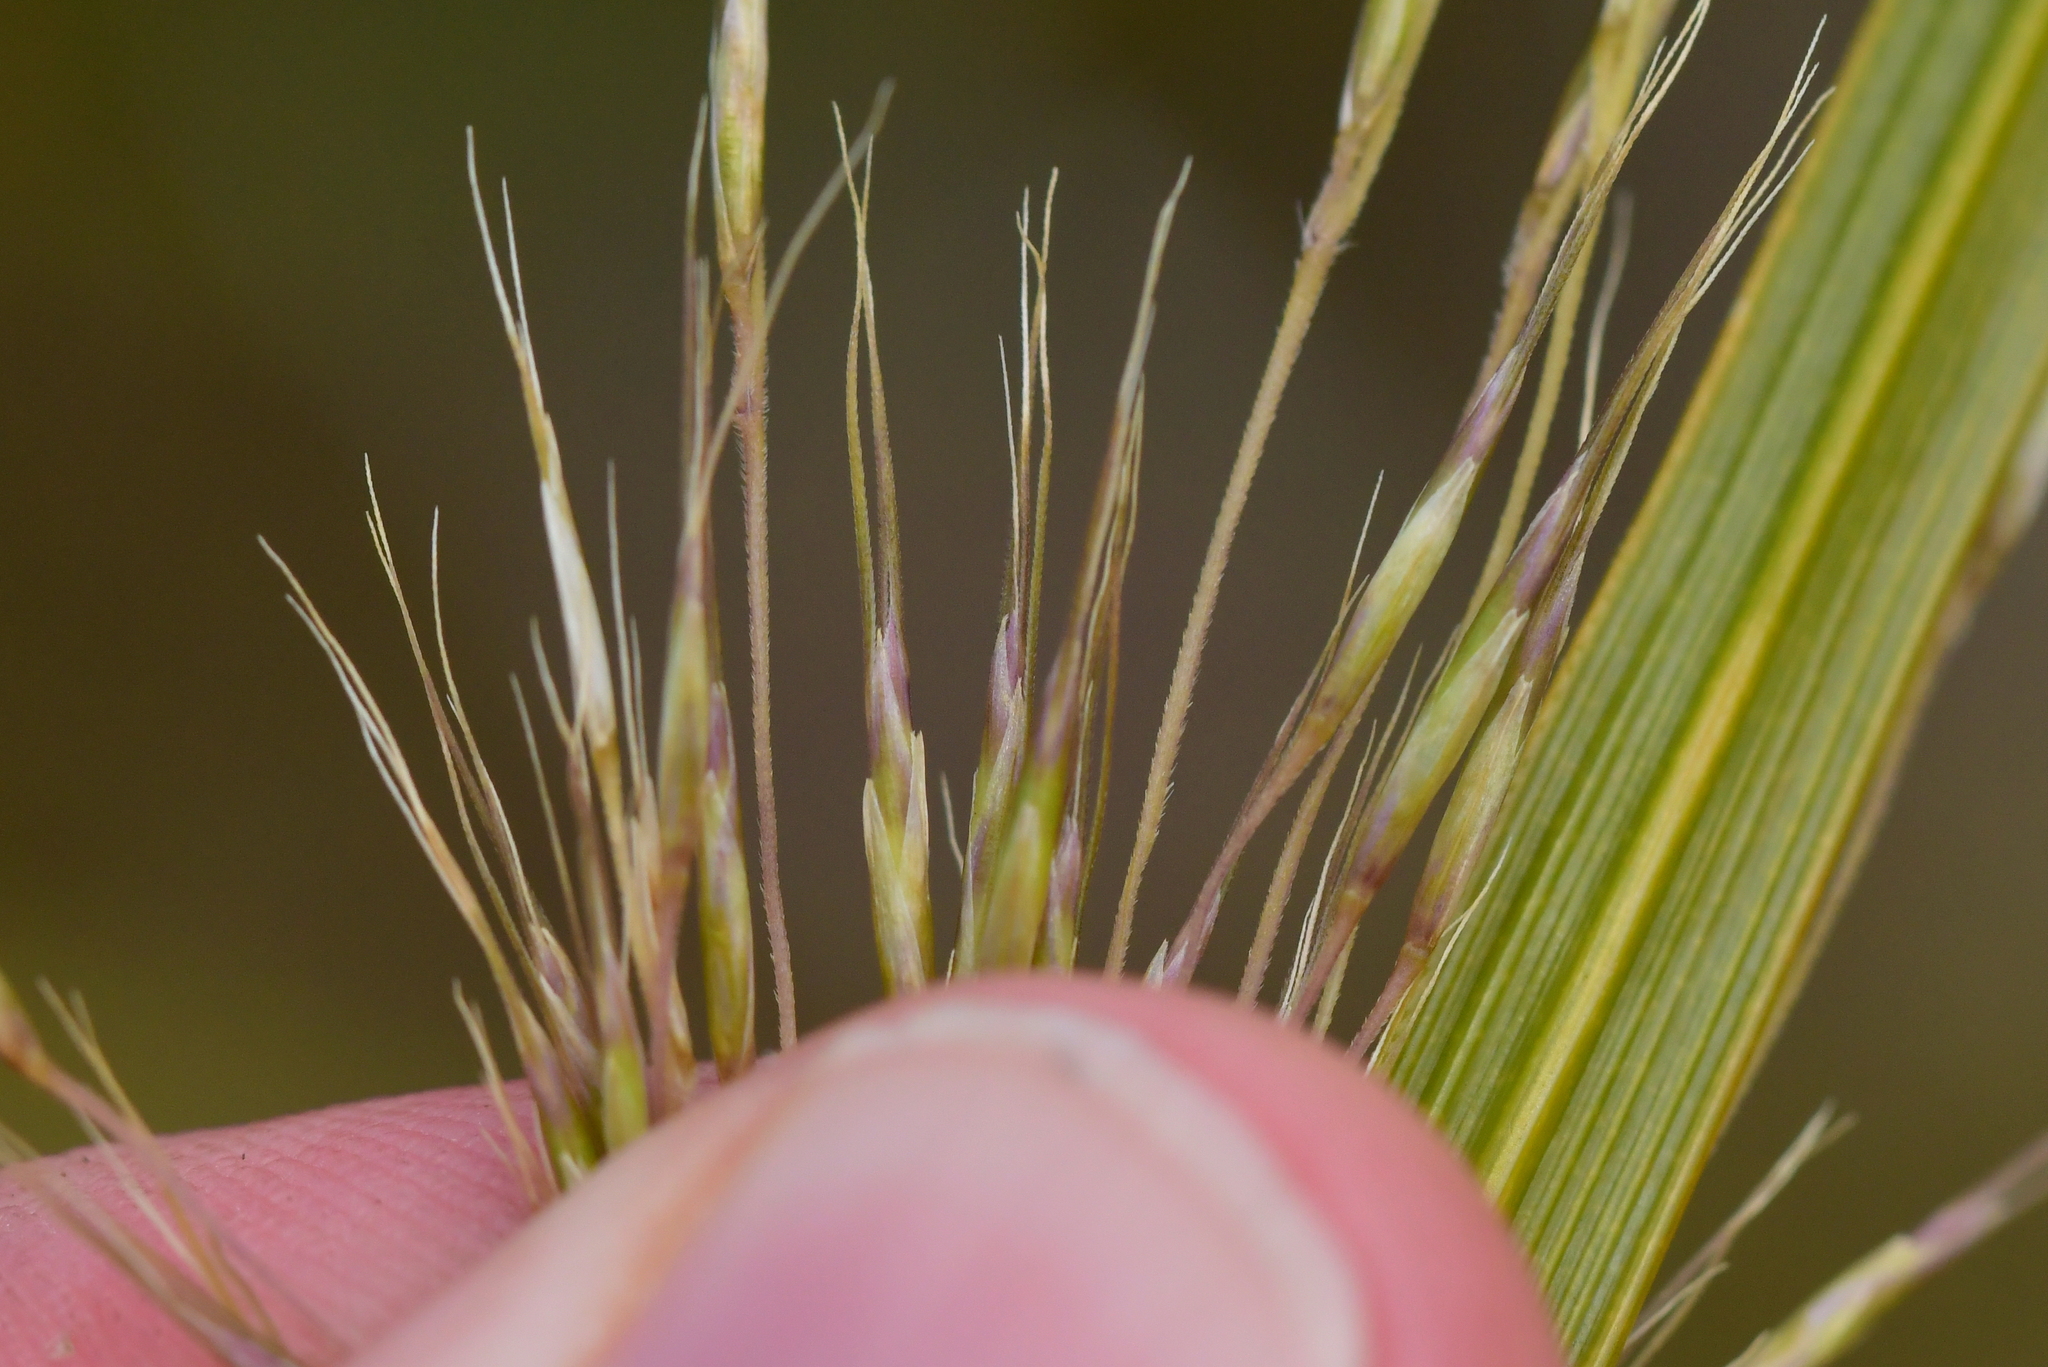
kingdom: Plantae
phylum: Tracheophyta
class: Liliopsida
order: Poales
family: Poaceae
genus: Chionochloa
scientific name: Chionochloa pallens
